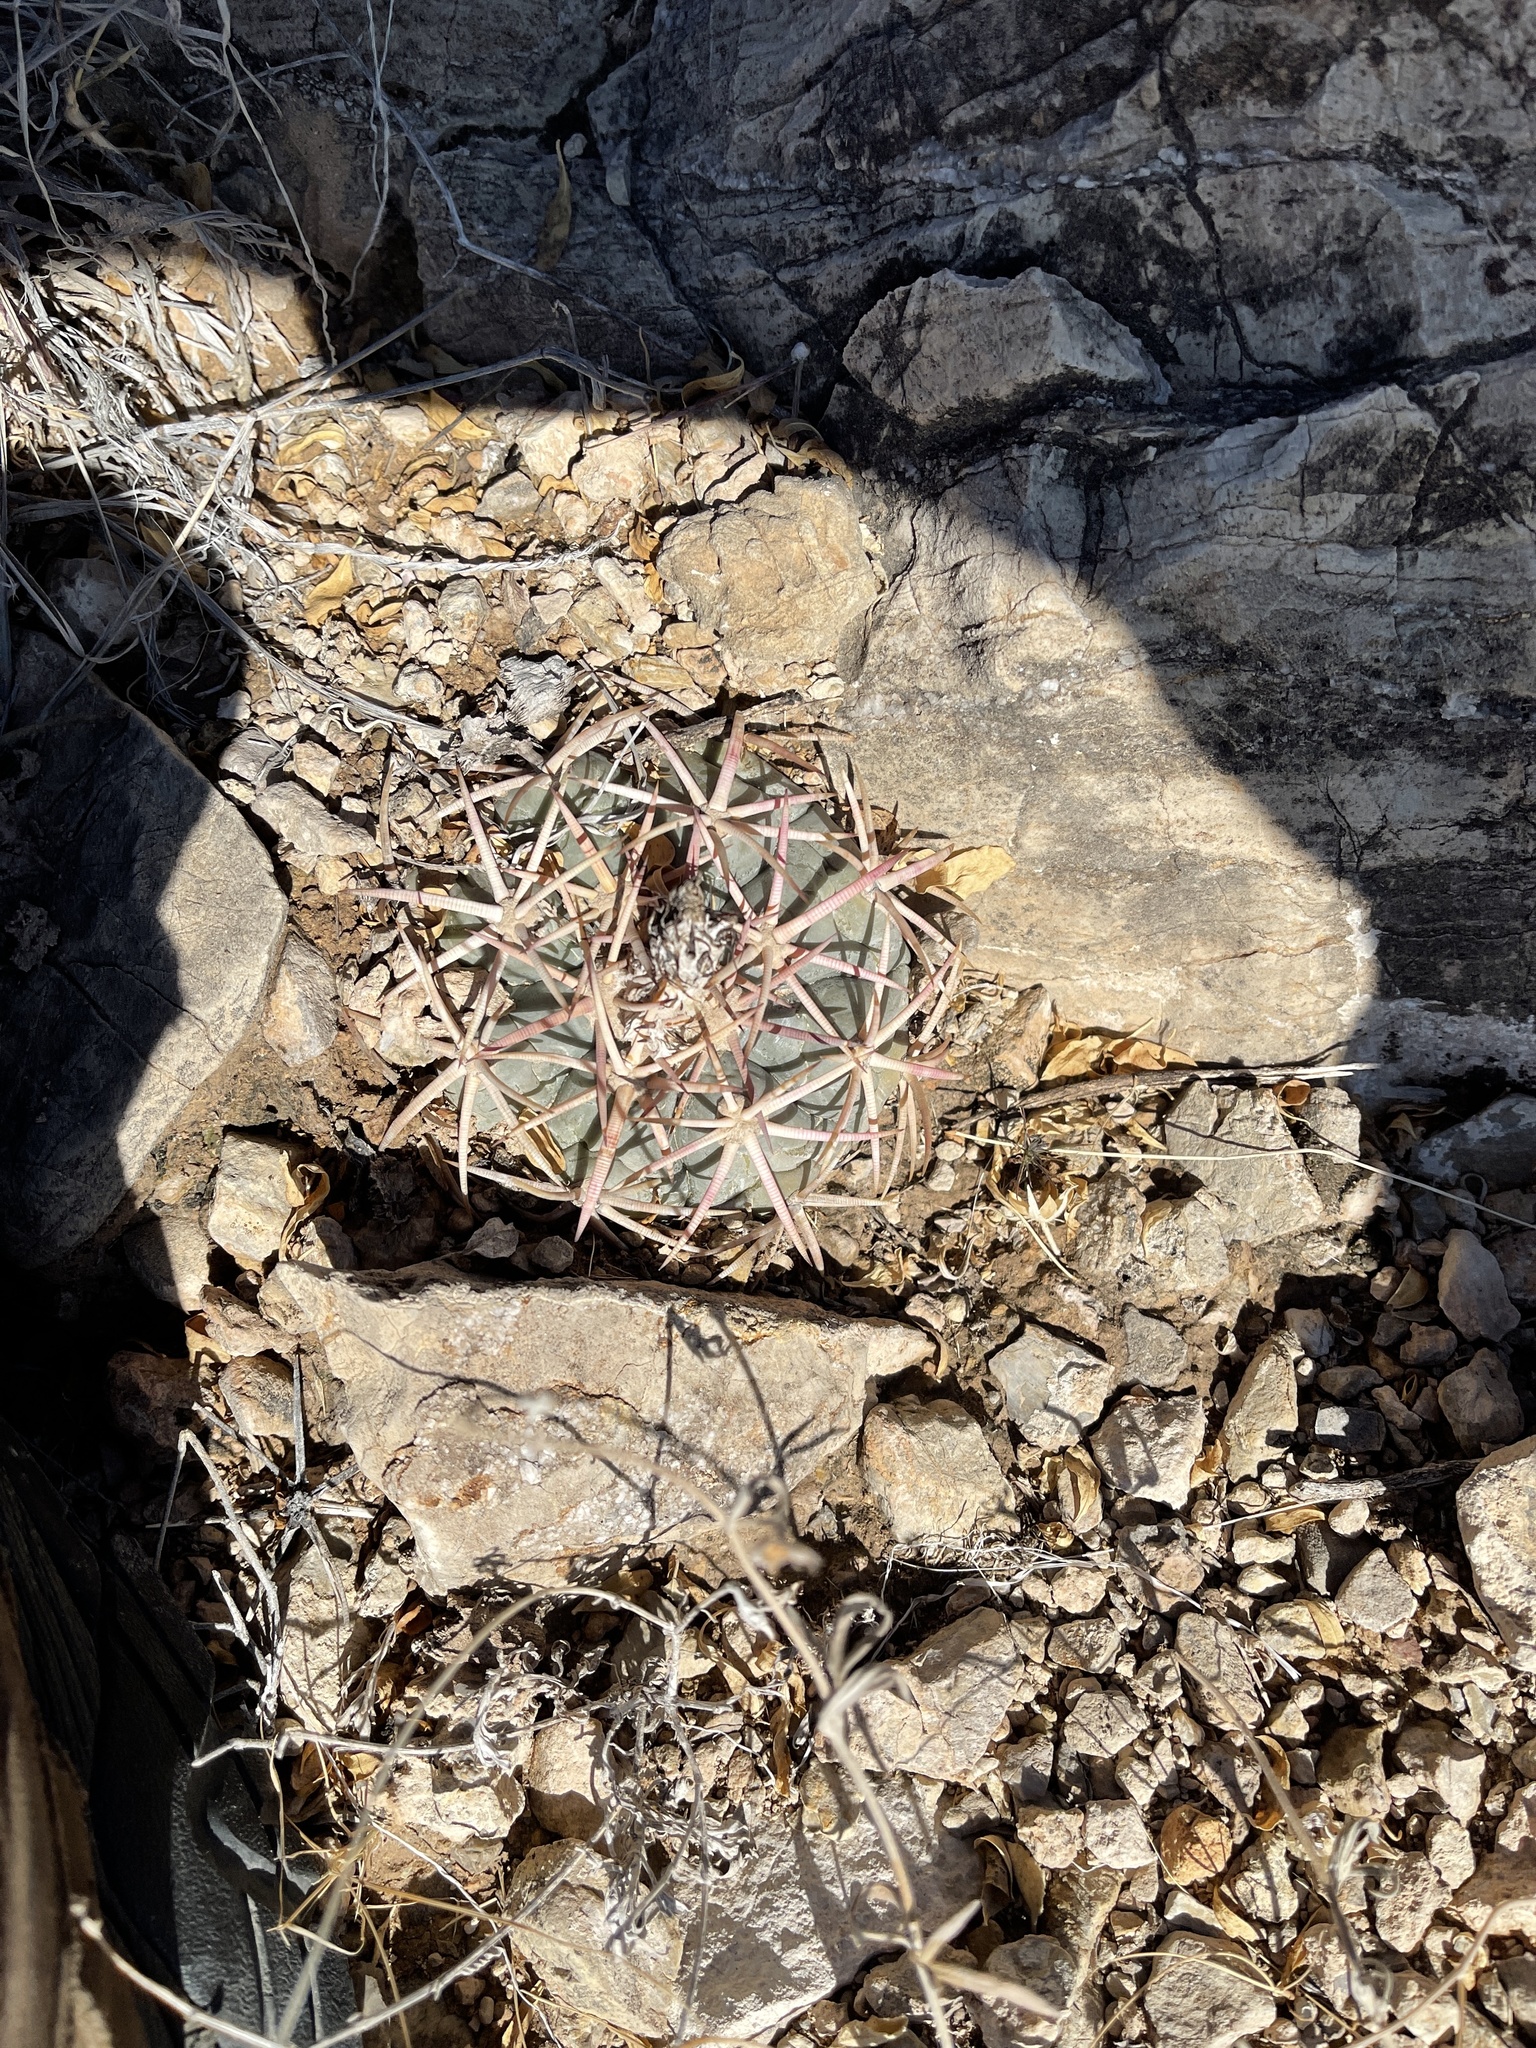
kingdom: Plantae
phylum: Tracheophyta
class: Magnoliopsida
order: Caryophyllales
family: Cactaceae
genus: Echinocactus
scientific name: Echinocactus horizonthalonius
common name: Devilshead
